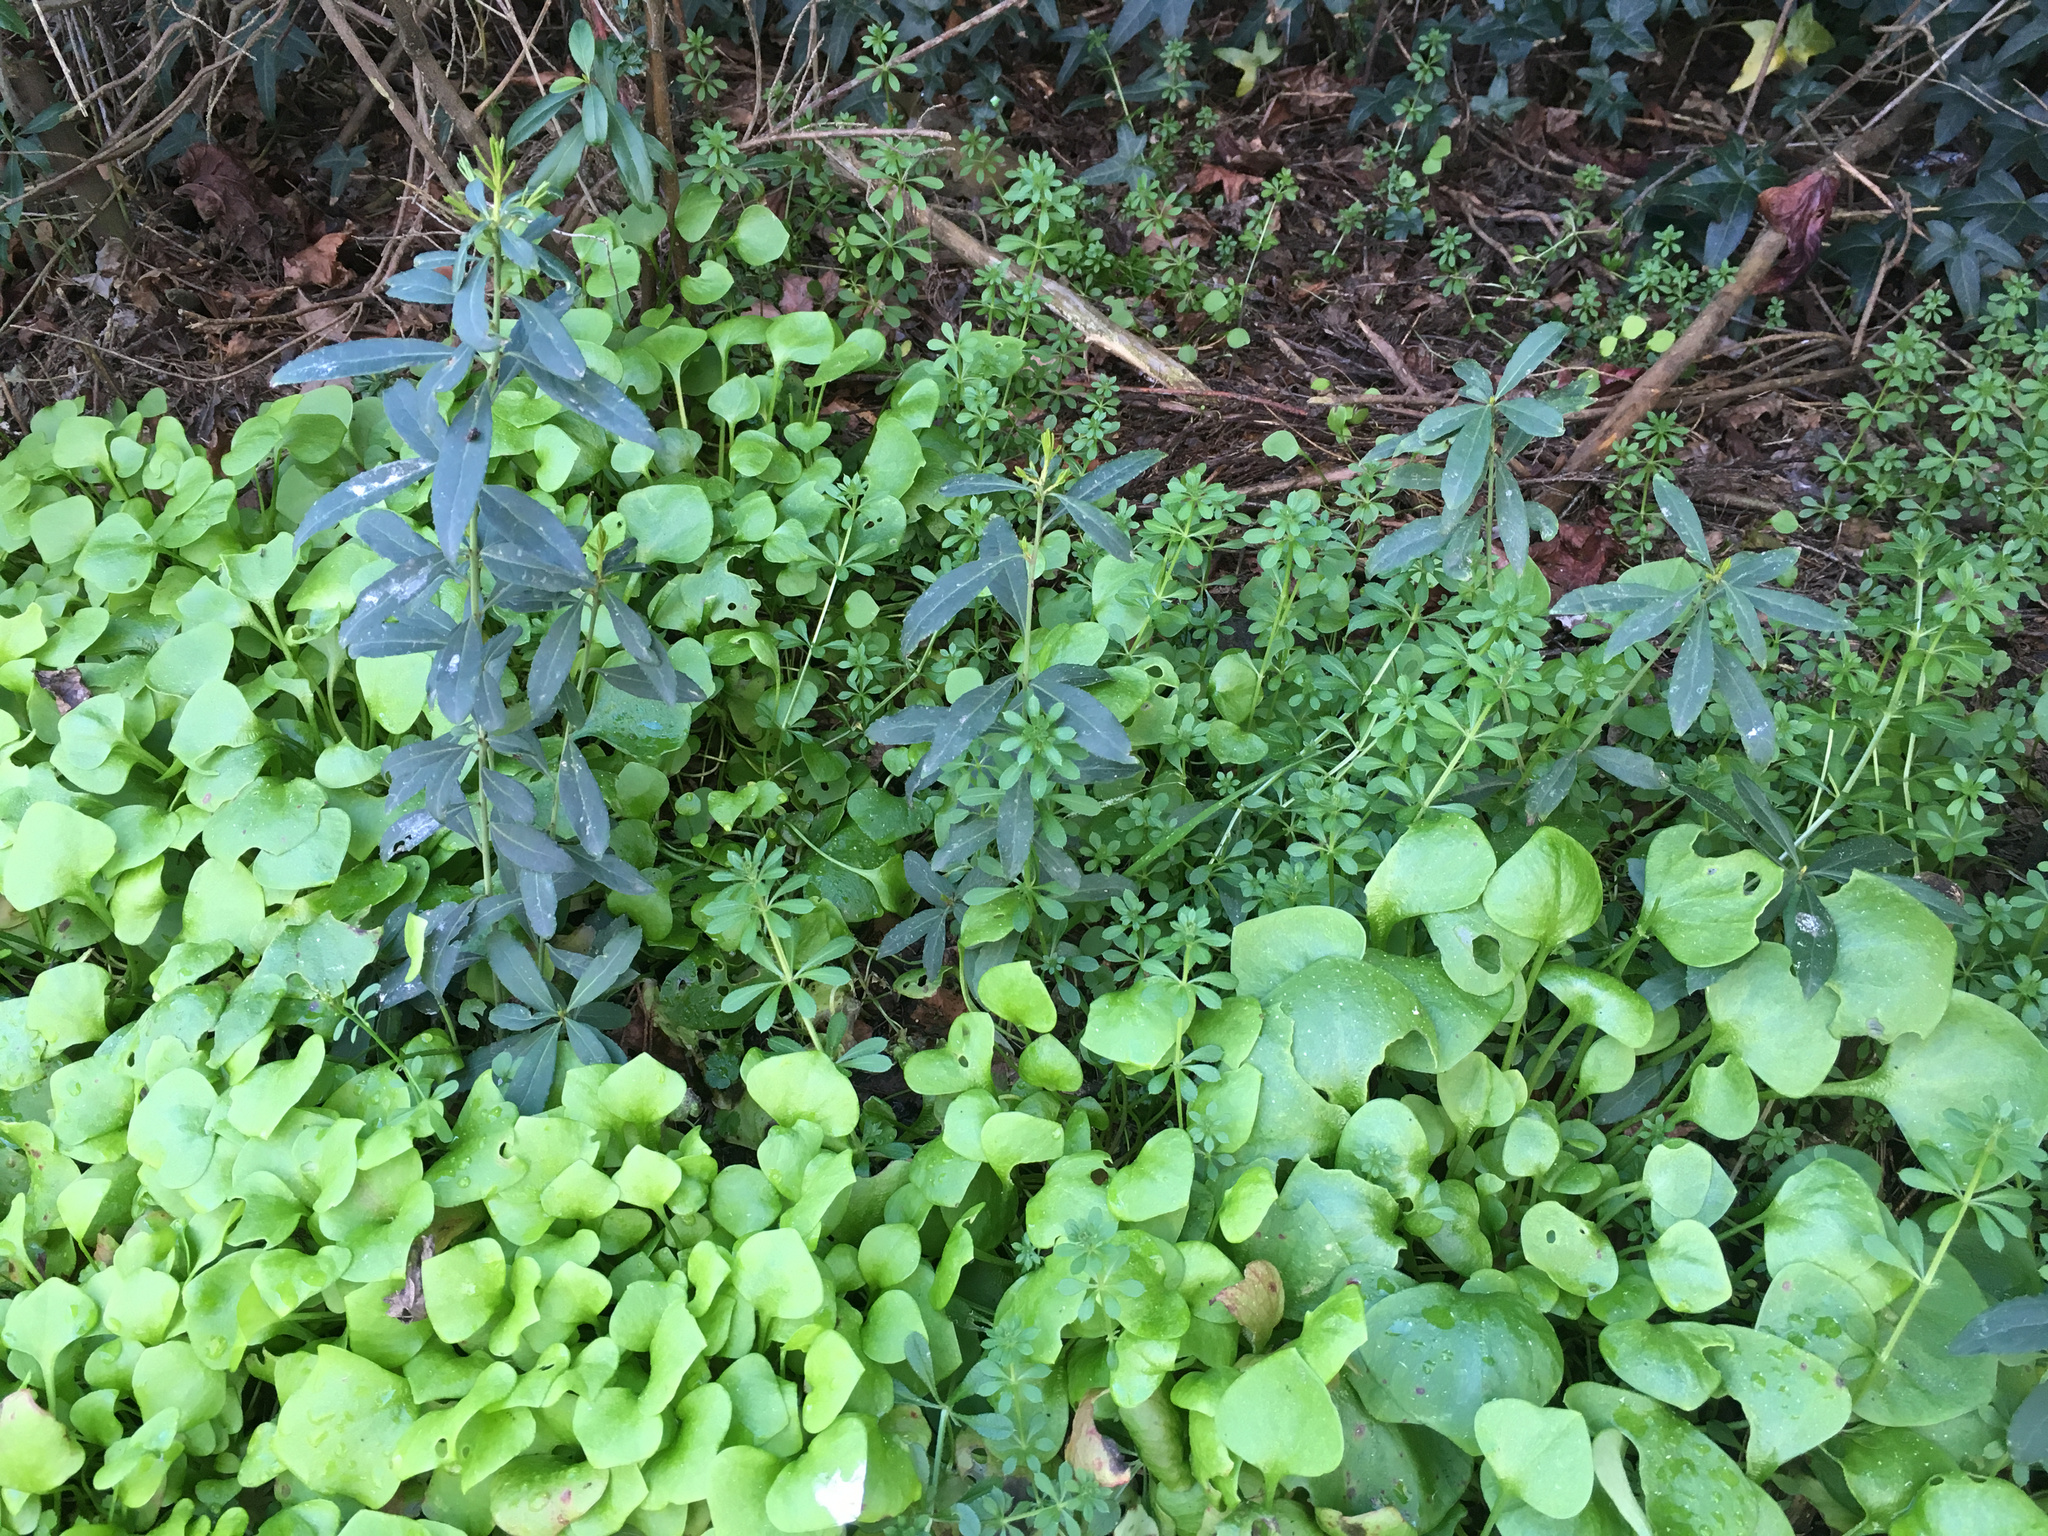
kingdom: Plantae
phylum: Tracheophyta
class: Magnoliopsida
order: Celastrales
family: Celastraceae
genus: Maytenus
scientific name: Maytenus boaria
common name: Mayten
